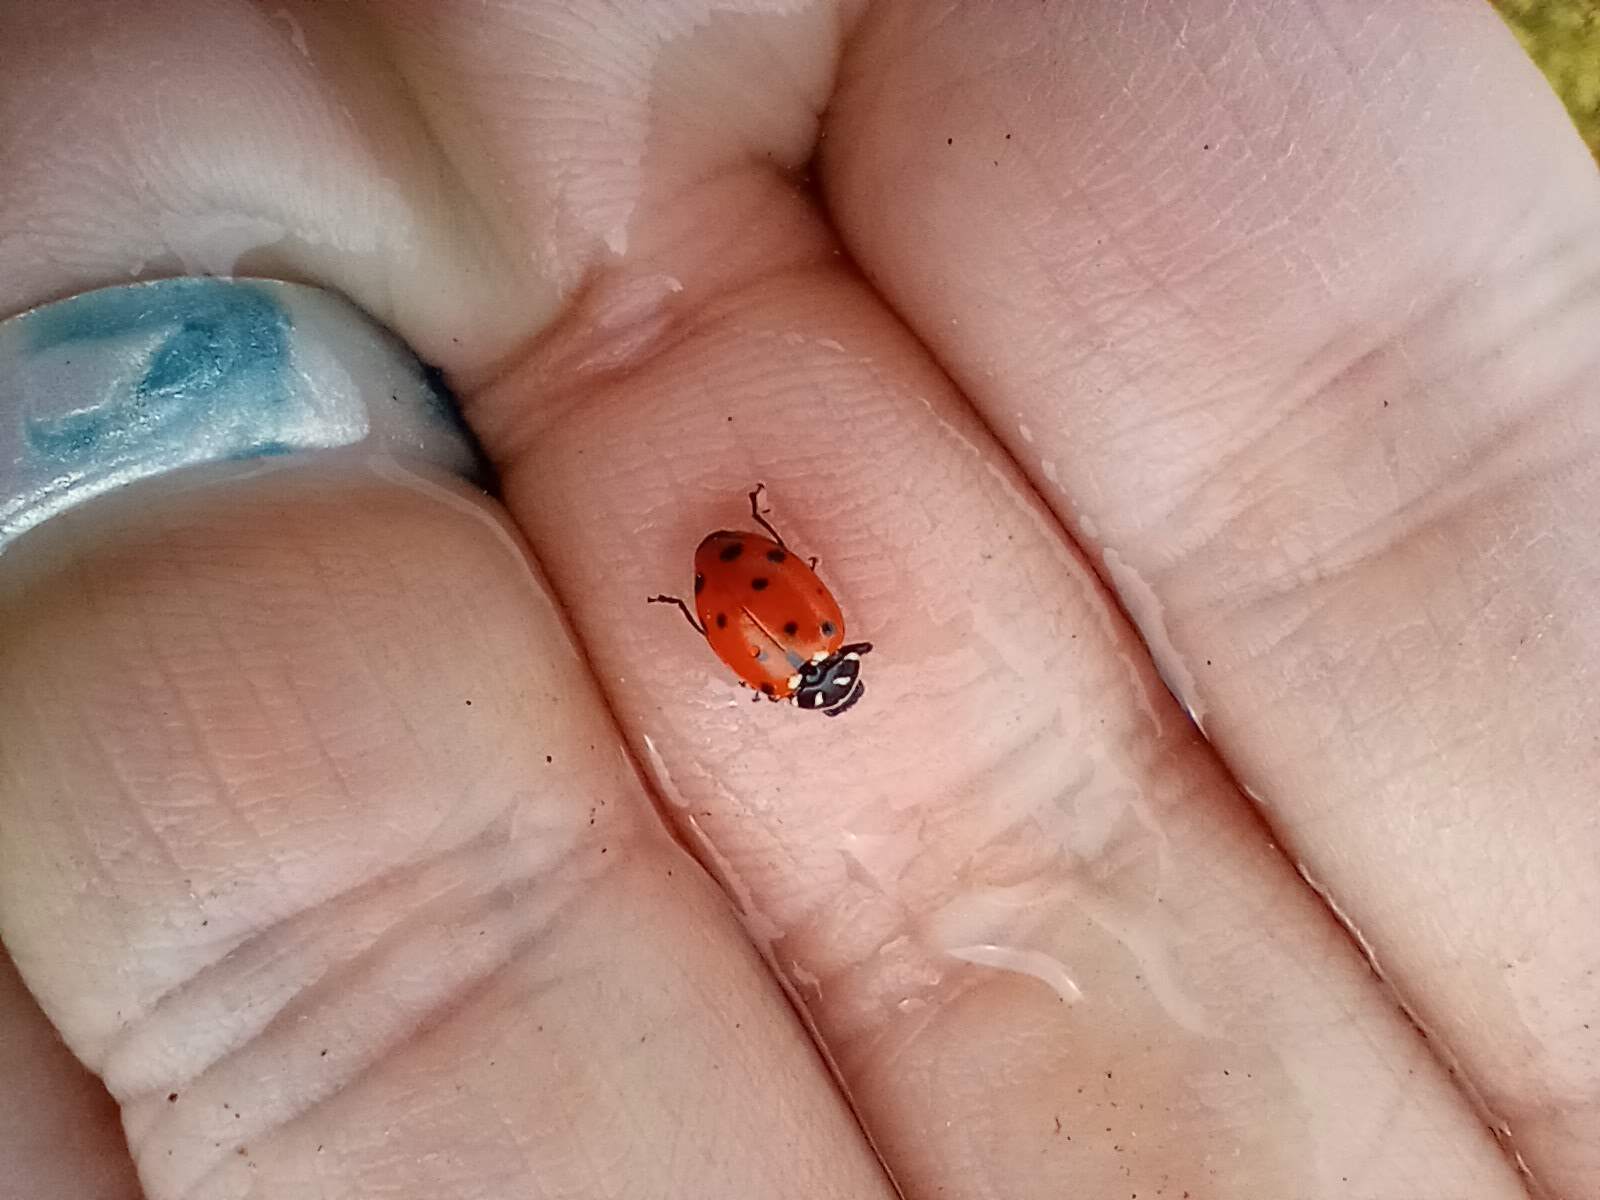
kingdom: Animalia
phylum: Arthropoda
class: Insecta
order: Coleoptera
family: Coccinellidae
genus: Hippodamia
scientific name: Hippodamia convergens
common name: Convergent lady beetle
